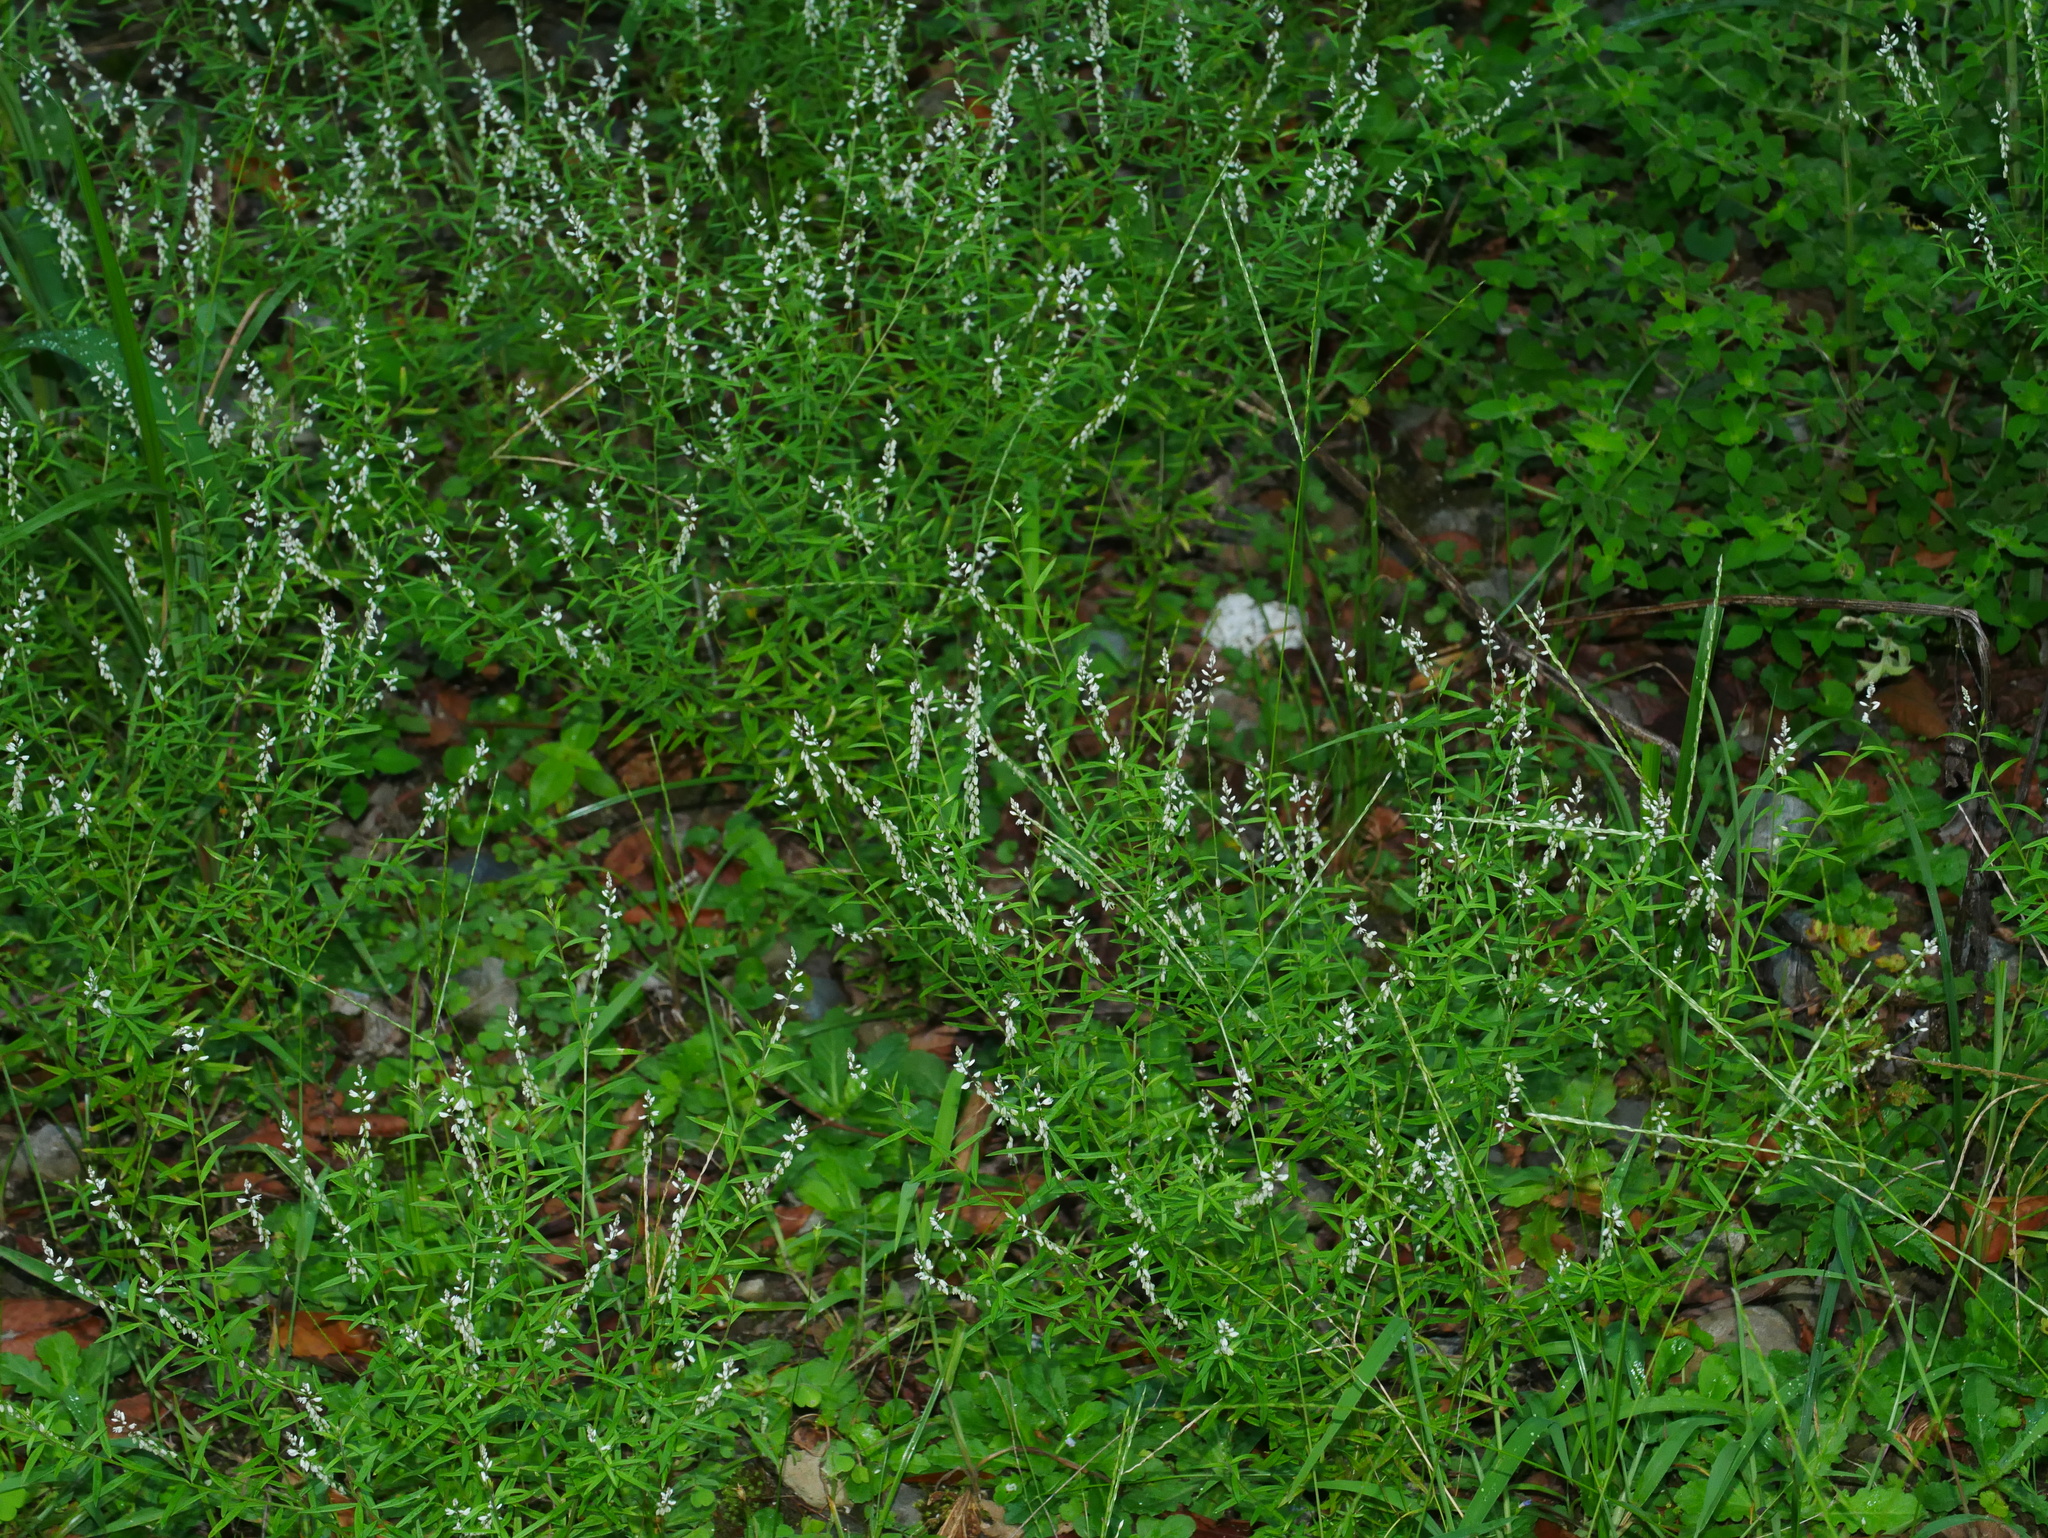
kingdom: Plantae
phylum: Tracheophyta
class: Magnoliopsida
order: Fabales
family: Polygalaceae
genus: Polygala
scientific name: Polygala paniculata
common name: Orosne
